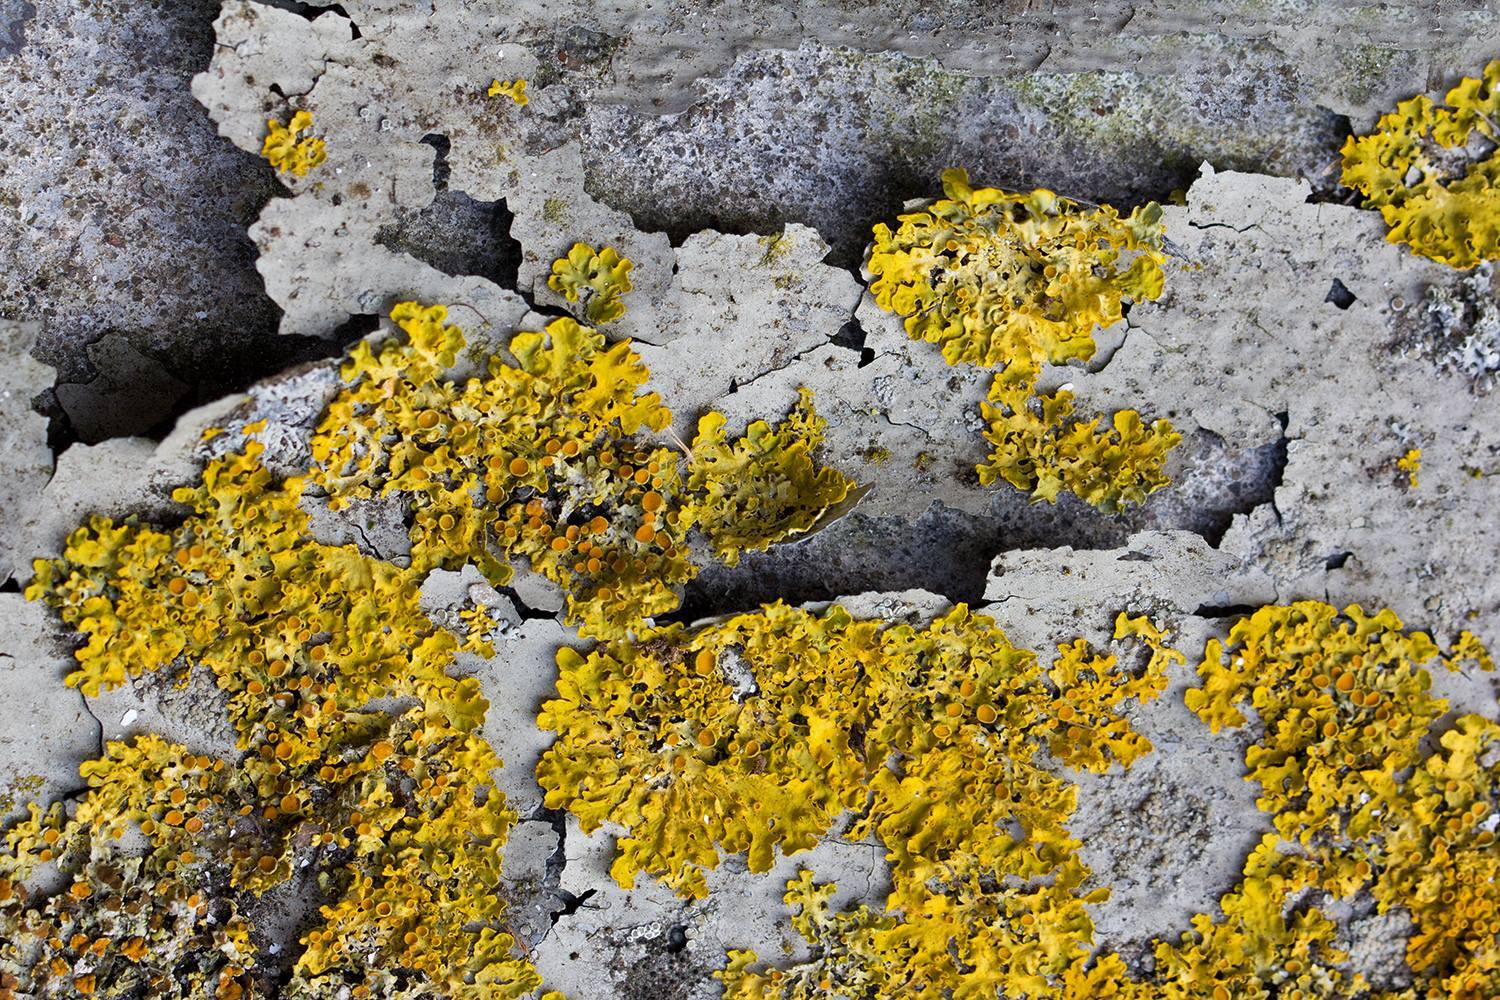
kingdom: Fungi
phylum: Ascomycota
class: Lecanoromycetes
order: Teloschistales
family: Teloschistaceae
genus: Xanthoria
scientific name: Xanthoria parietina
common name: Common orange lichen
